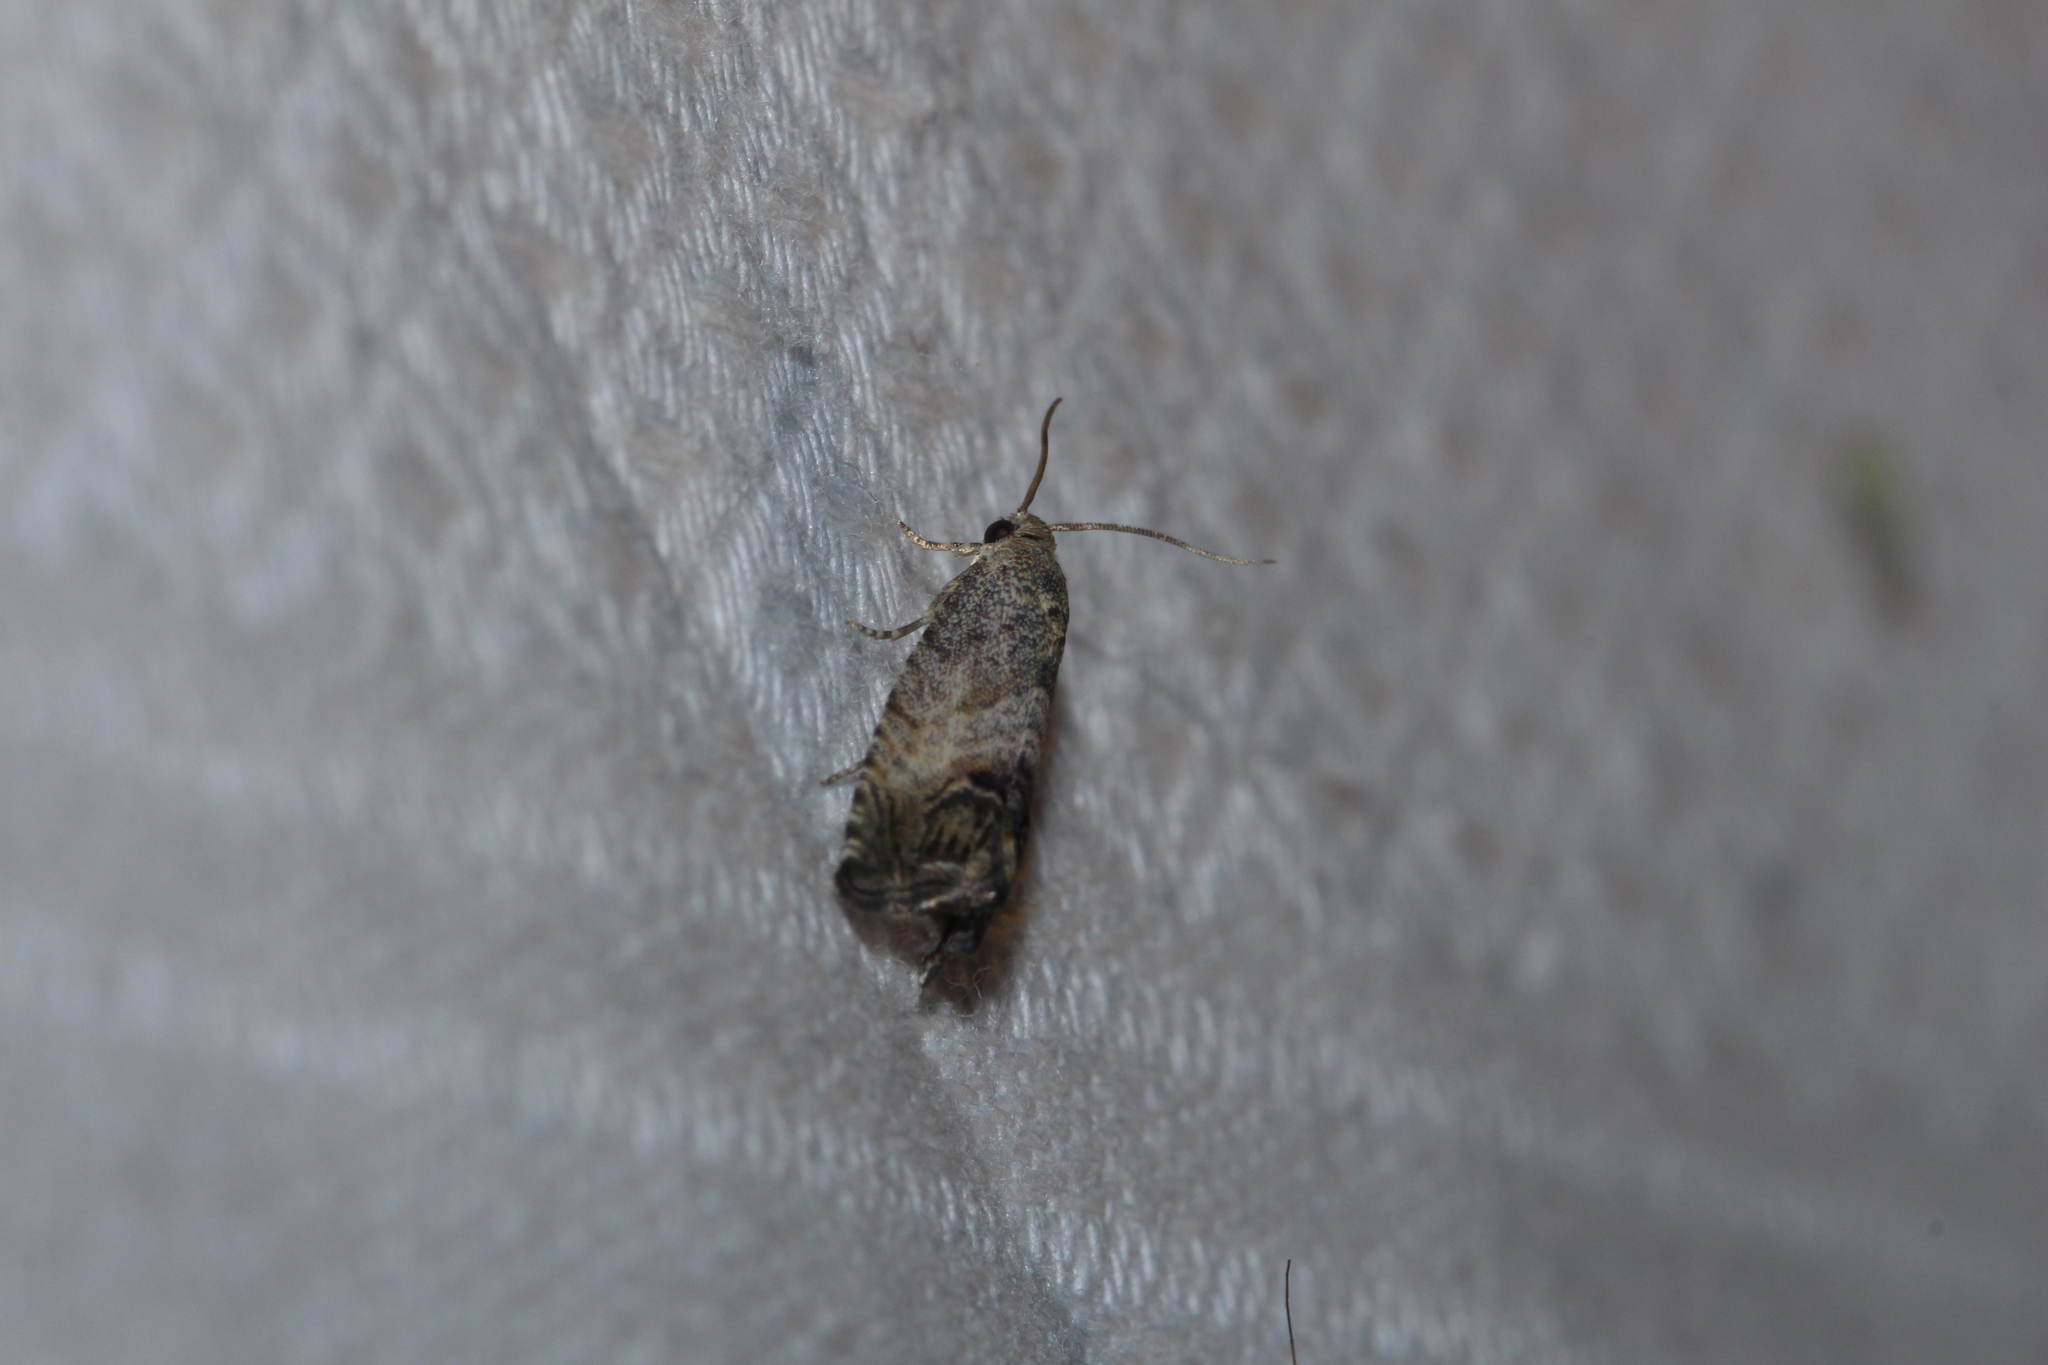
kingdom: Animalia
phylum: Arthropoda
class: Insecta
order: Lepidoptera
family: Tortricidae
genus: Cydia
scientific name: Cydia splendana
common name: De: kastanienwickler, eichenwickler es: oruga de la castaña fr: carpocapse des châtaignes it: cidia o tortrice tardiva delle castagne pt: bichado das castanhas gb: acorn moth, chestnut fruit tortrix
